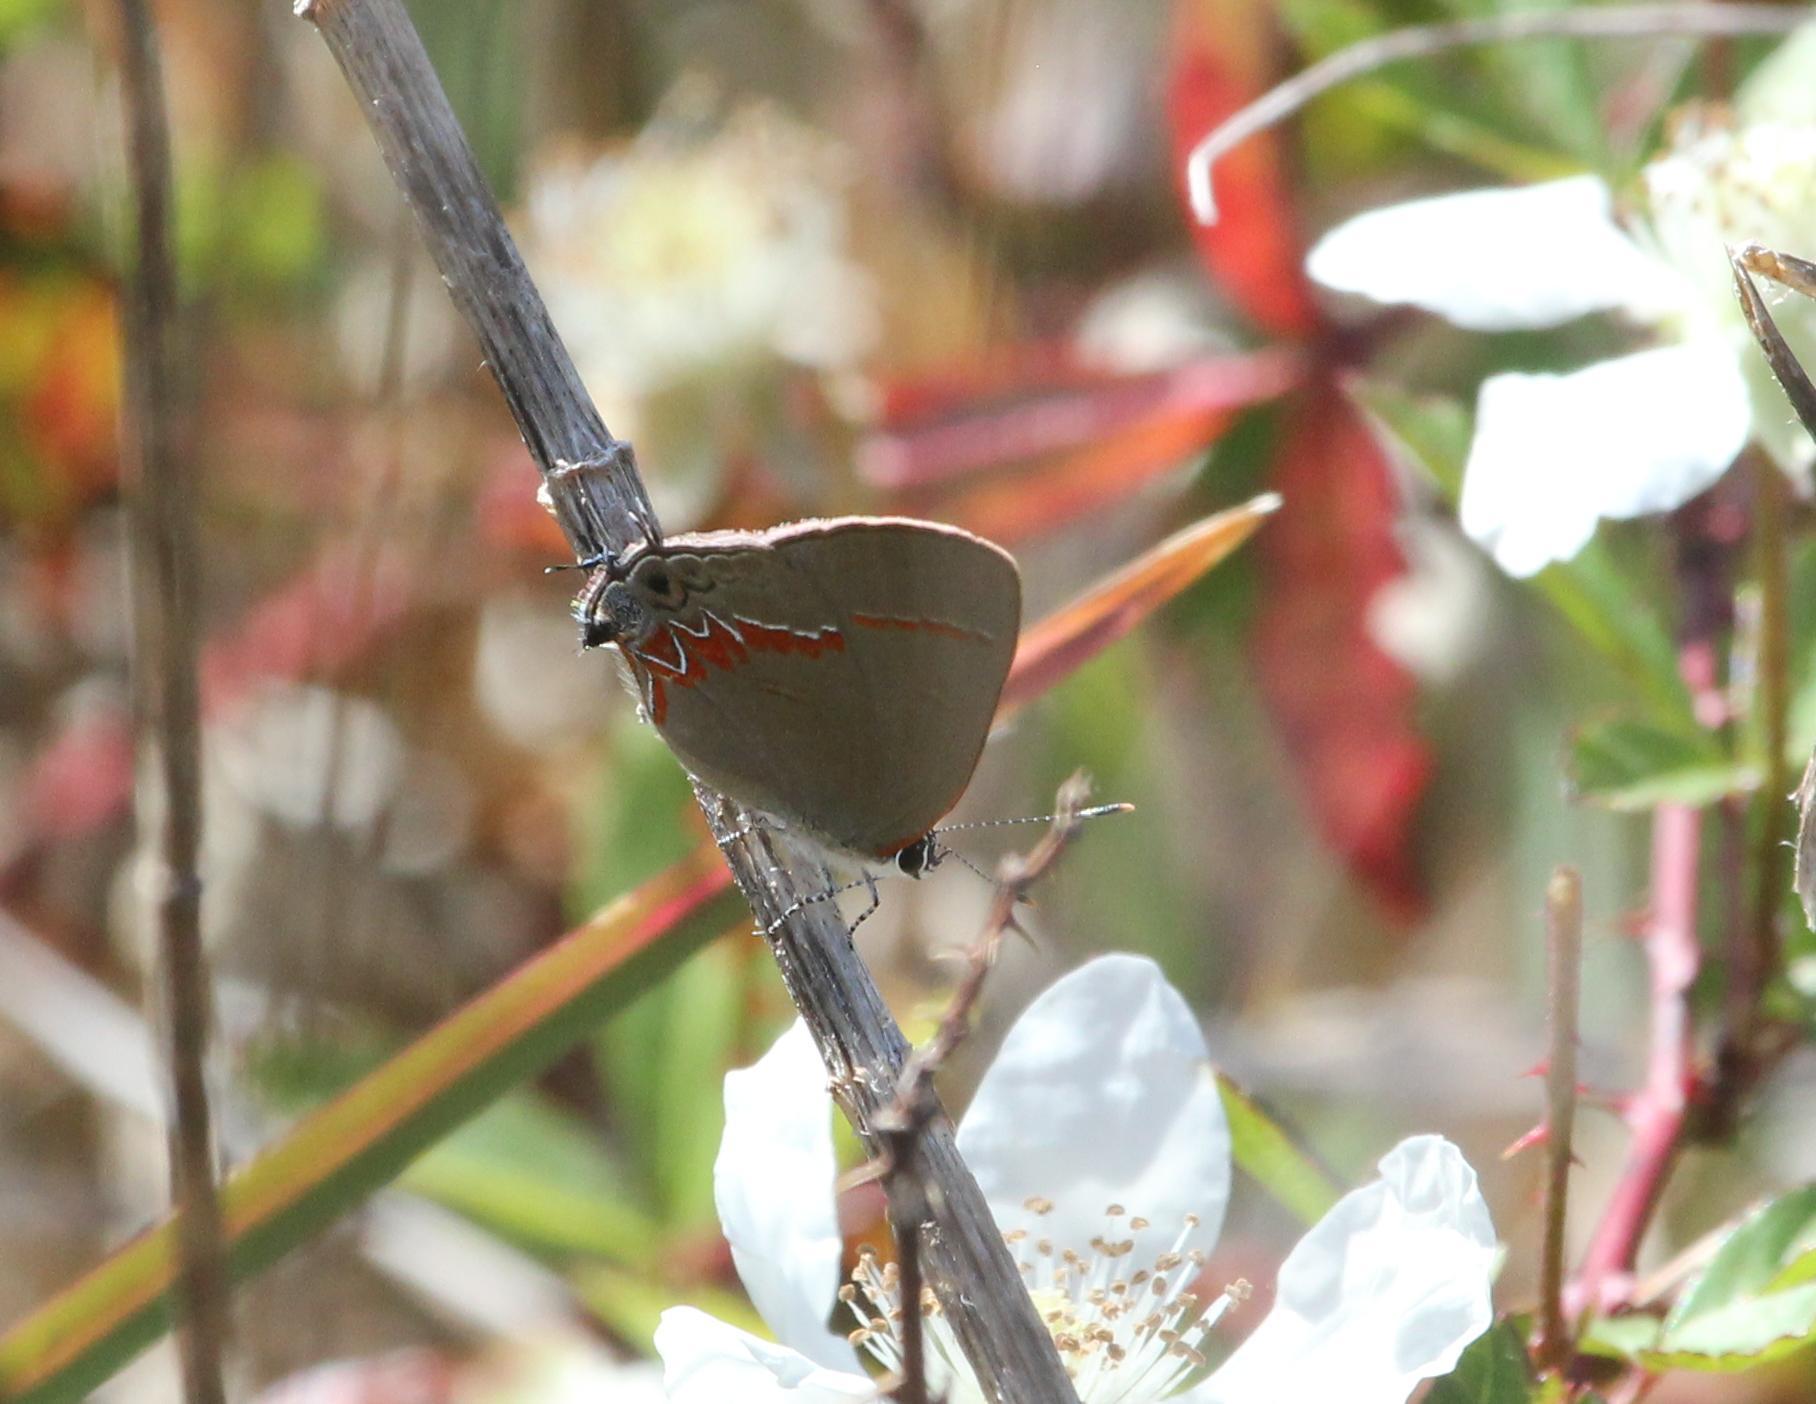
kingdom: Animalia
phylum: Arthropoda
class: Insecta
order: Lepidoptera
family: Lycaenidae
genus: Calycopis
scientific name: Calycopis cecrops
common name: Red-banded hairstreak
